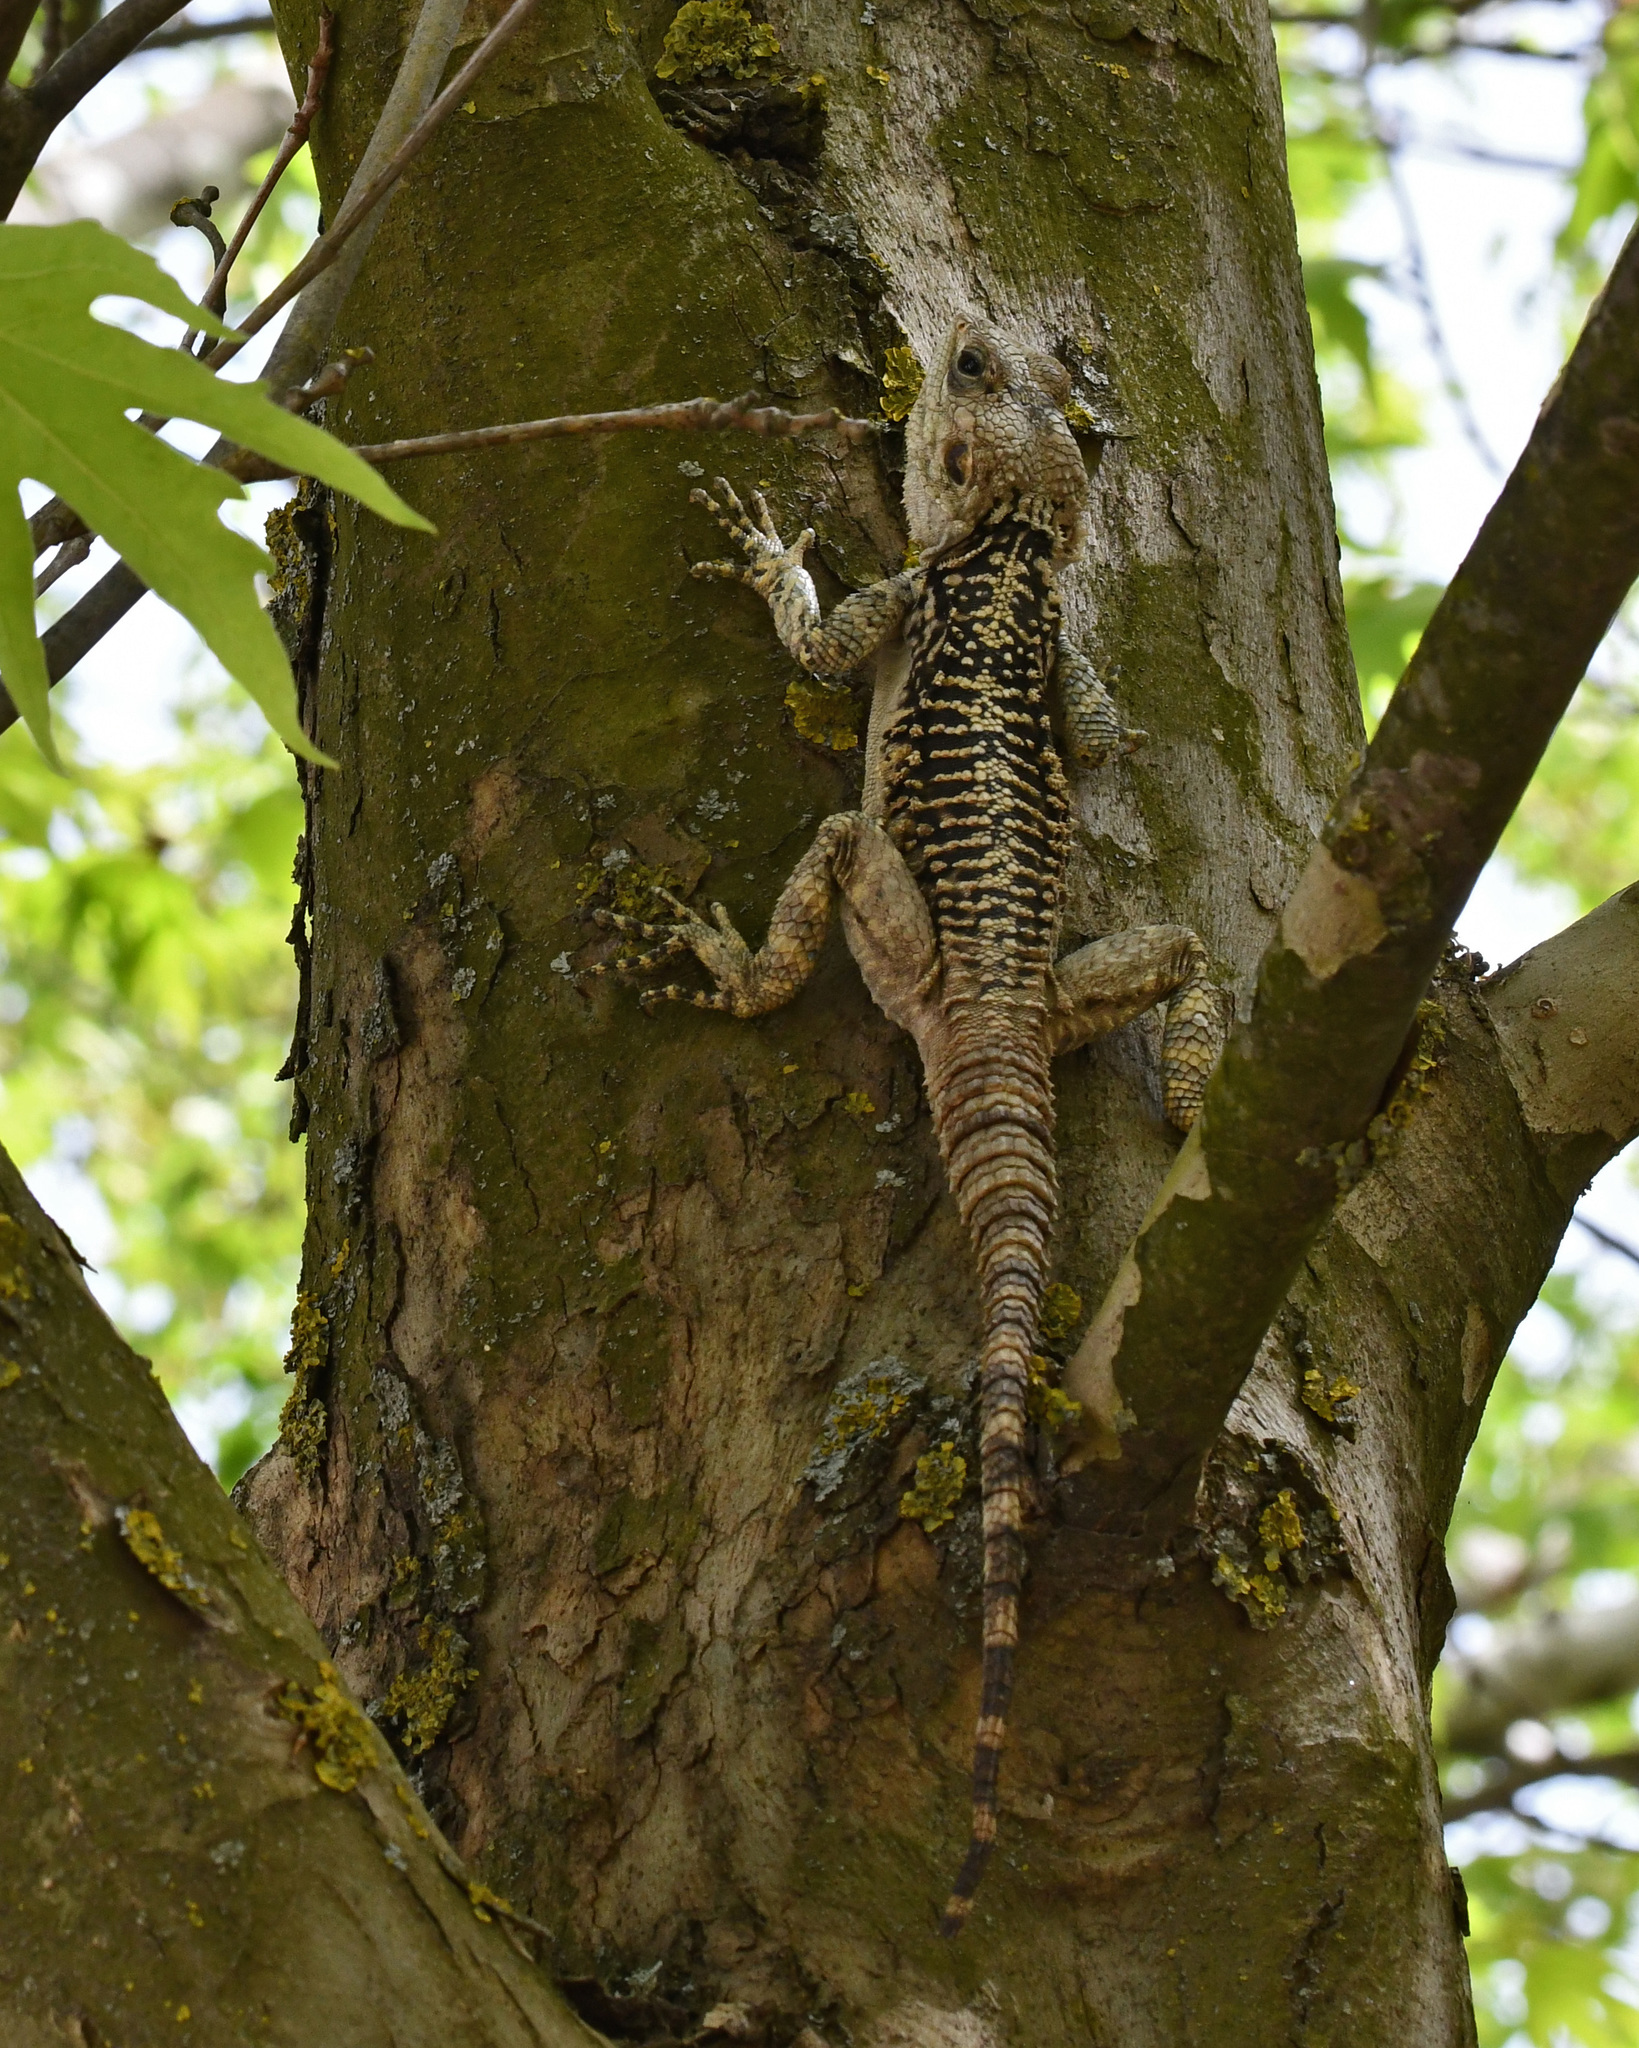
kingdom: Animalia
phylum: Chordata
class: Squamata
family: Agamidae
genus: Laudakia
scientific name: Laudakia
